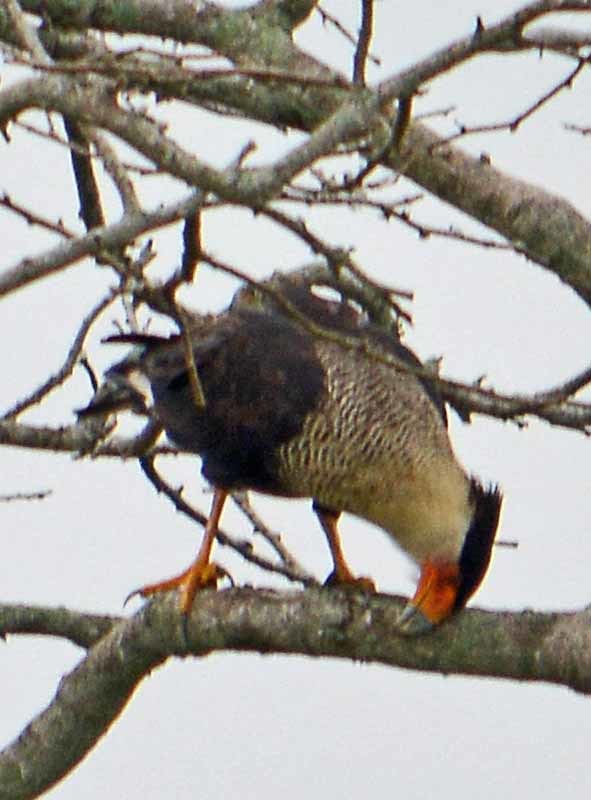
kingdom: Animalia
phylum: Chordata
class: Aves
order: Falconiformes
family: Falconidae
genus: Caracara
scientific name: Caracara plancus
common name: Southern caracara
